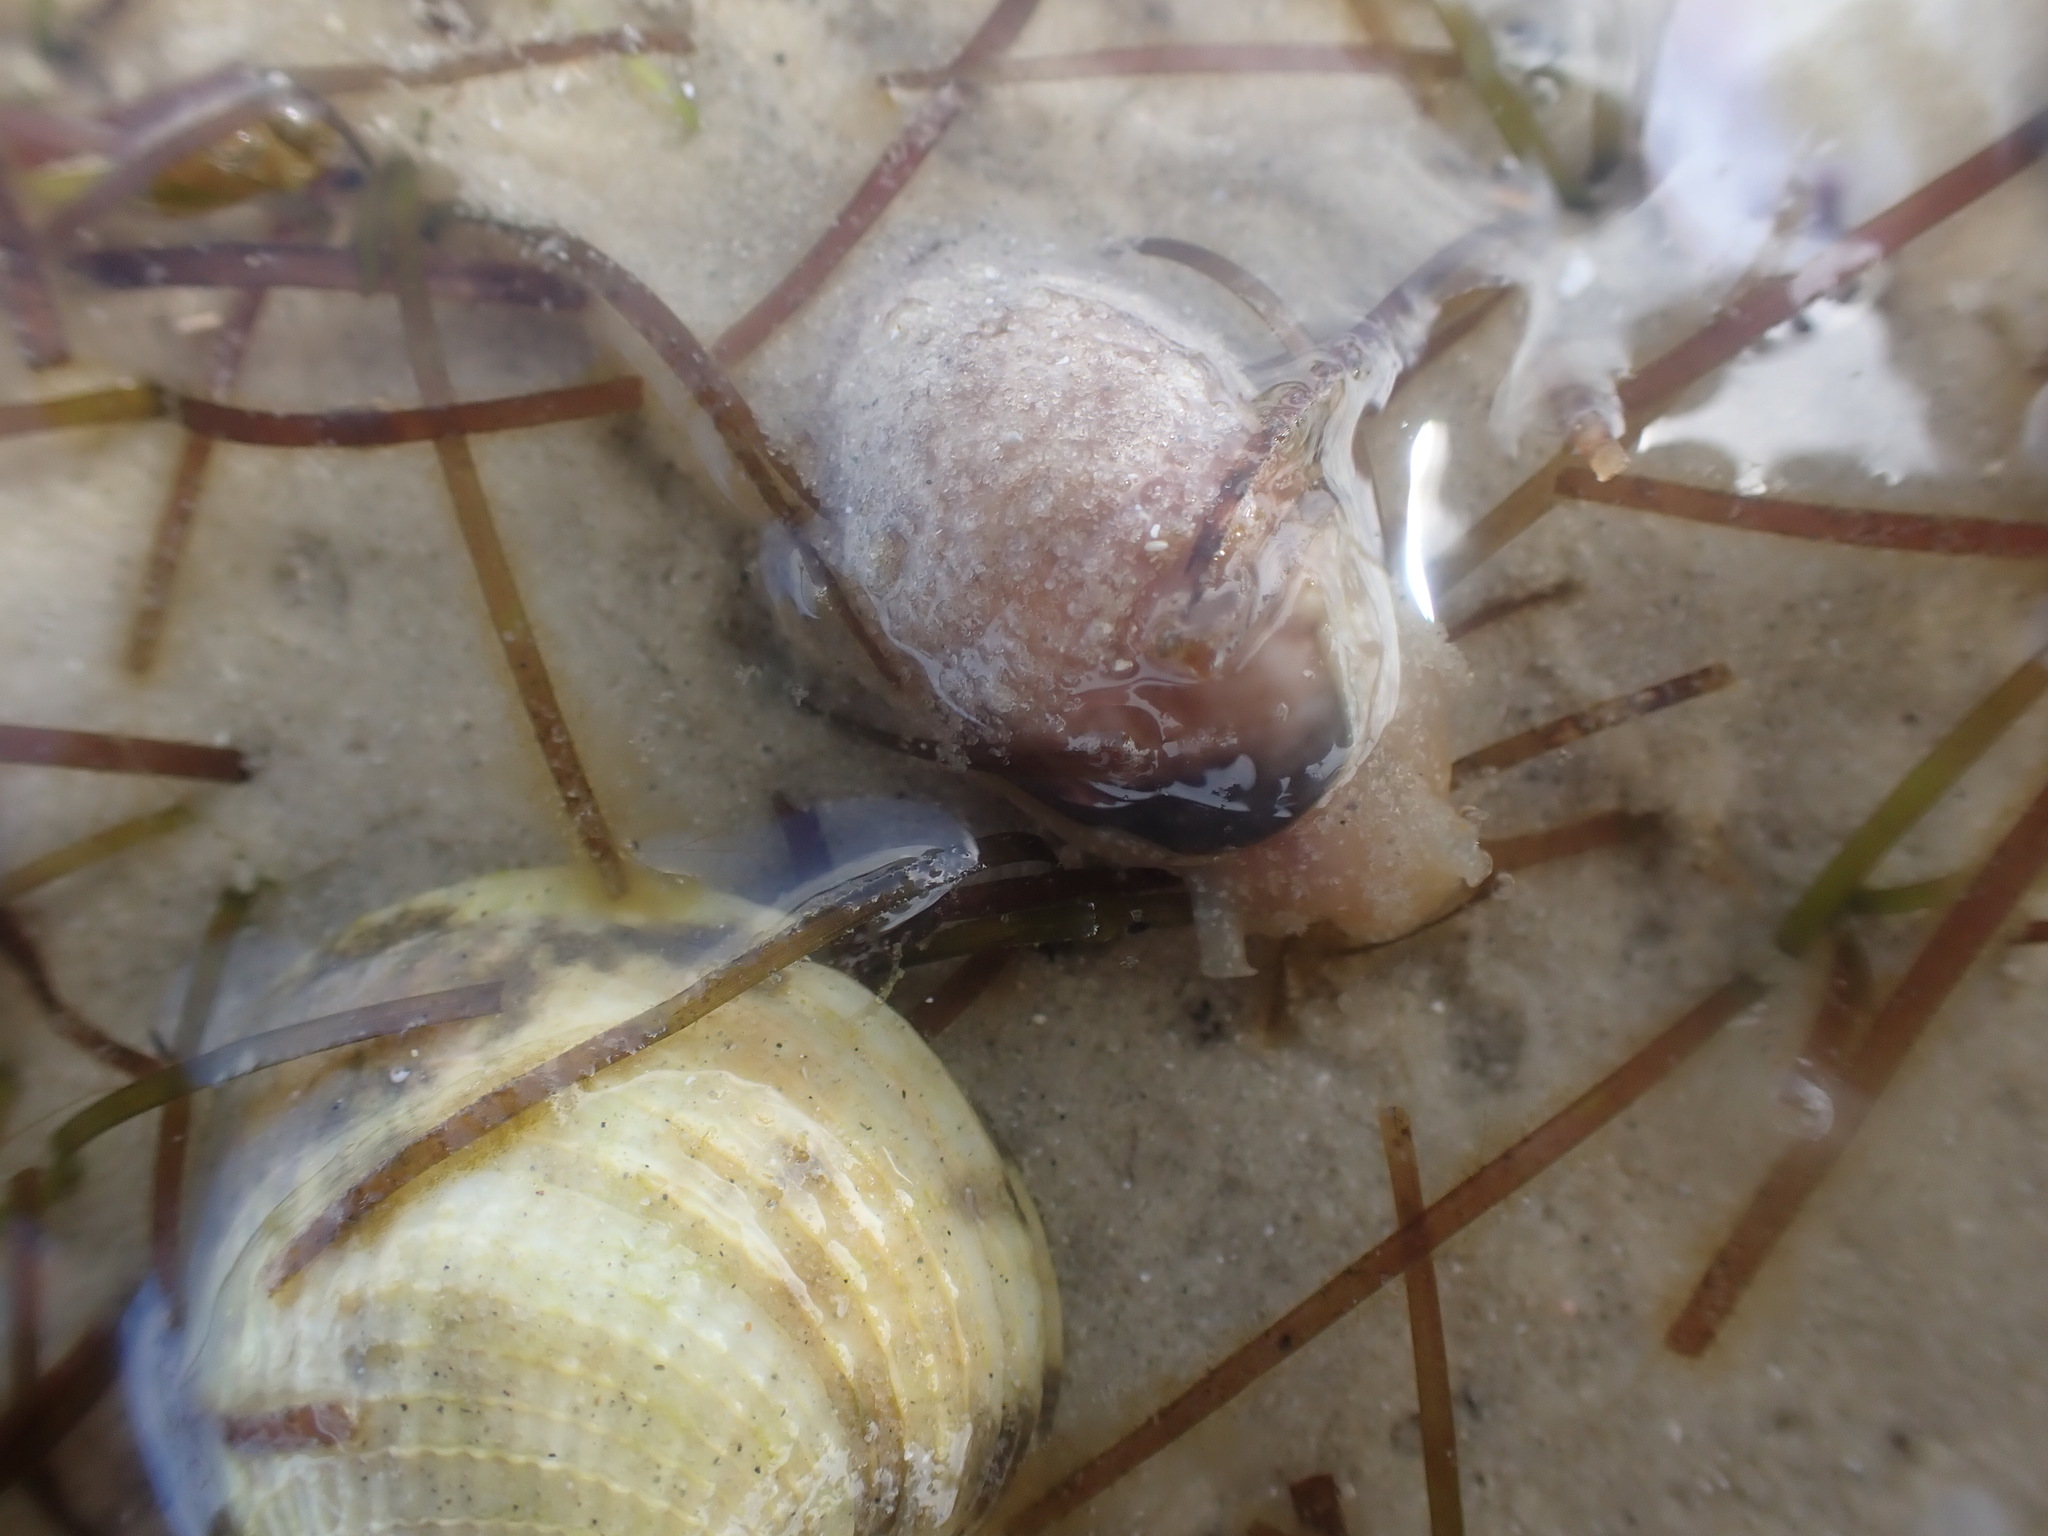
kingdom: Animalia
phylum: Mollusca
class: Gastropoda
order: Cephalaspidea
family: Bullidae
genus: Bulla
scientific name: Bulla quoyii
